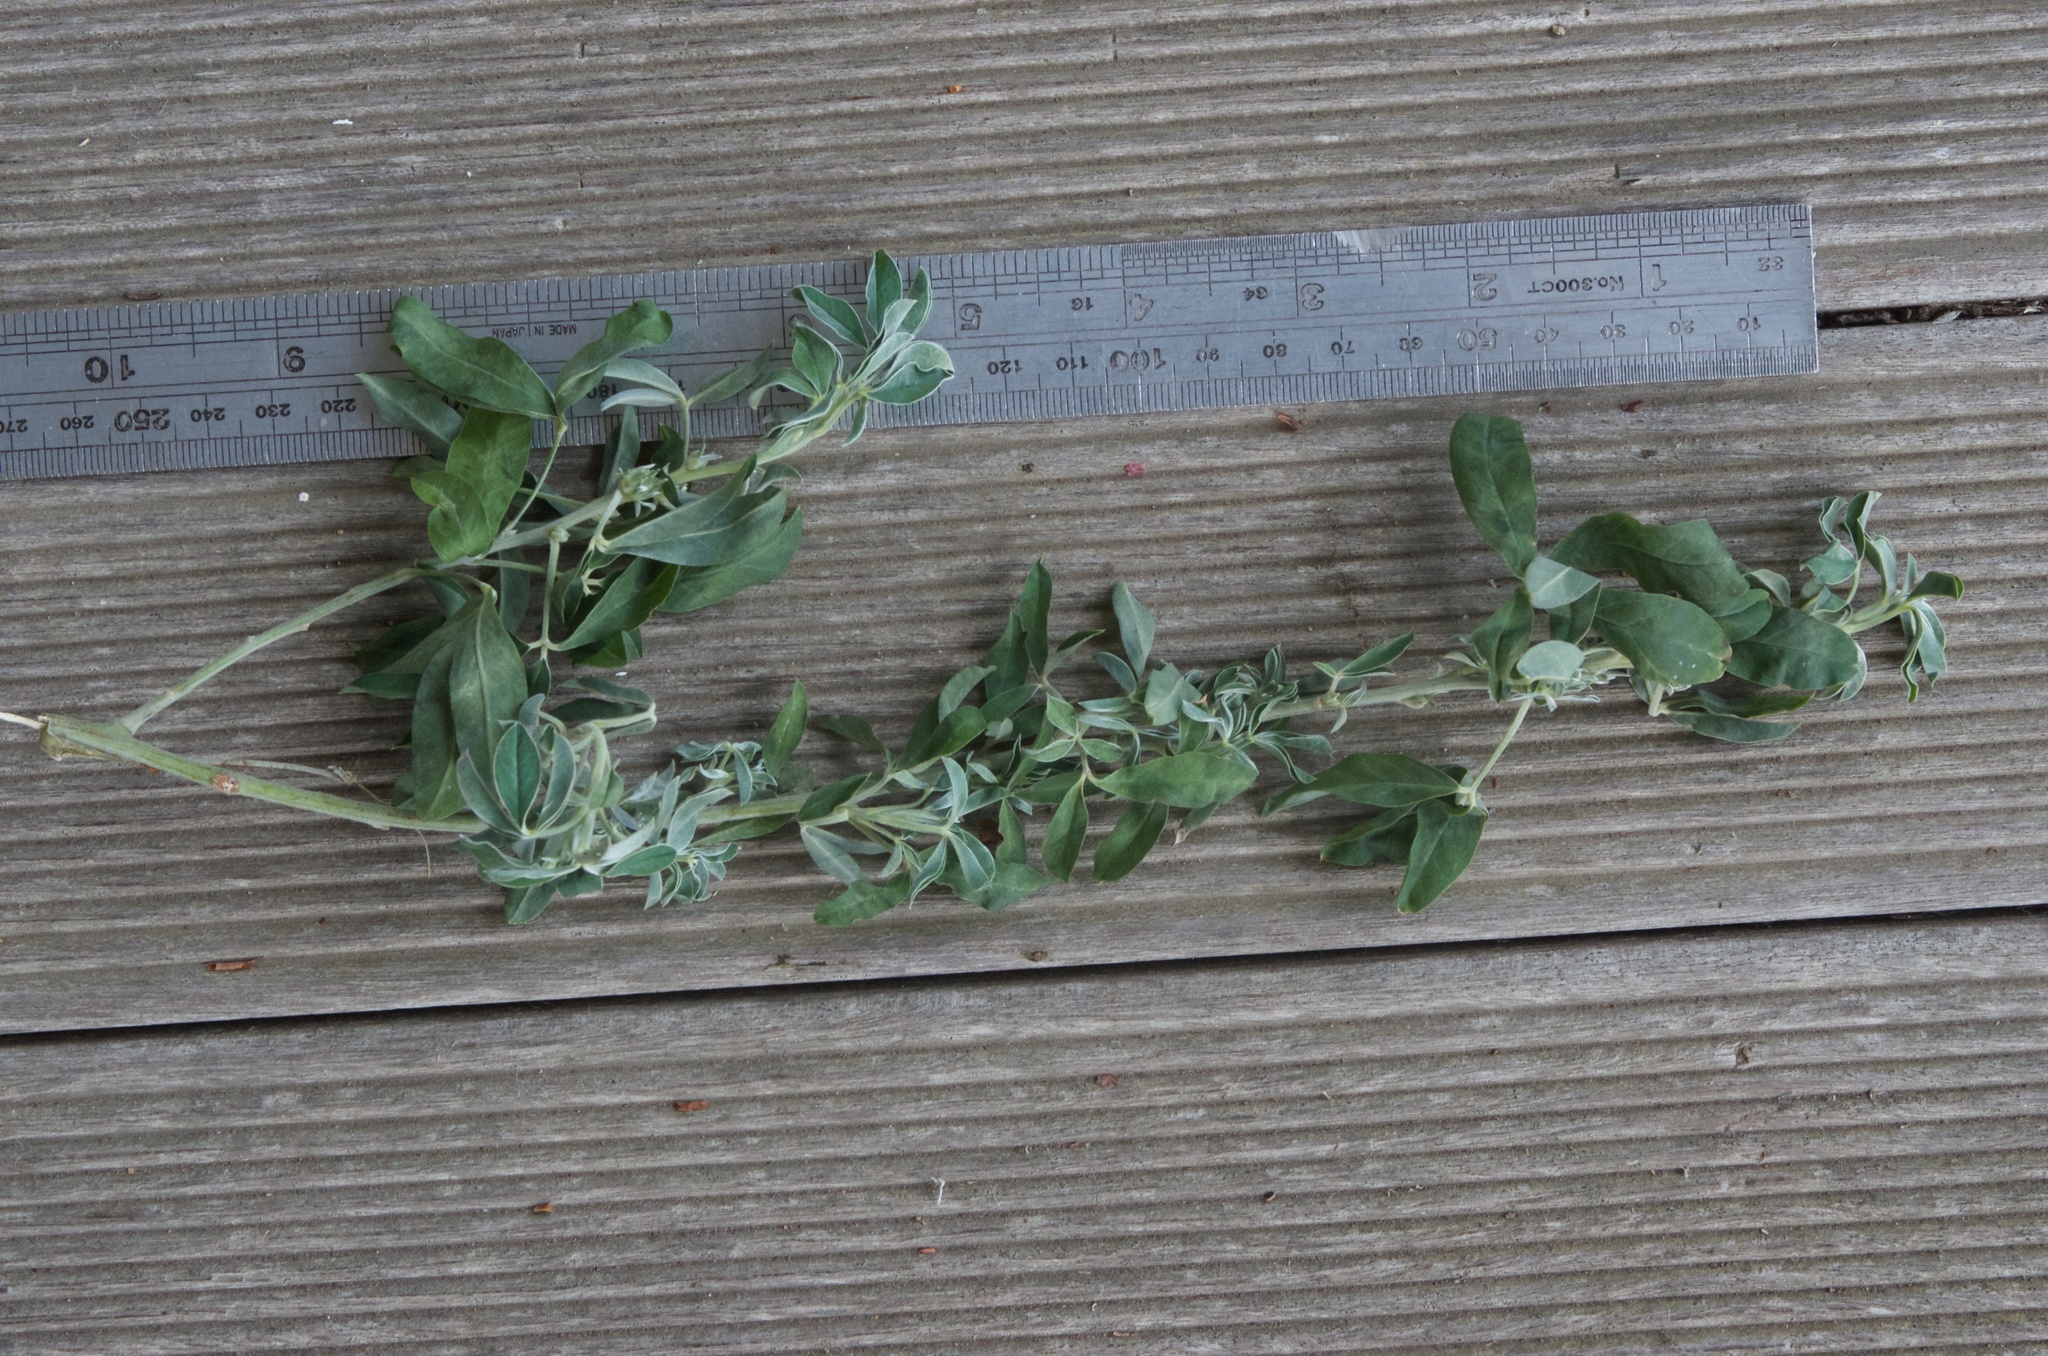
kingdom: Plantae
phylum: Tracheophyta
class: Magnoliopsida
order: Fabales
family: Fabaceae
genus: Chamaecytisus
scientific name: Chamaecytisus prolifer
